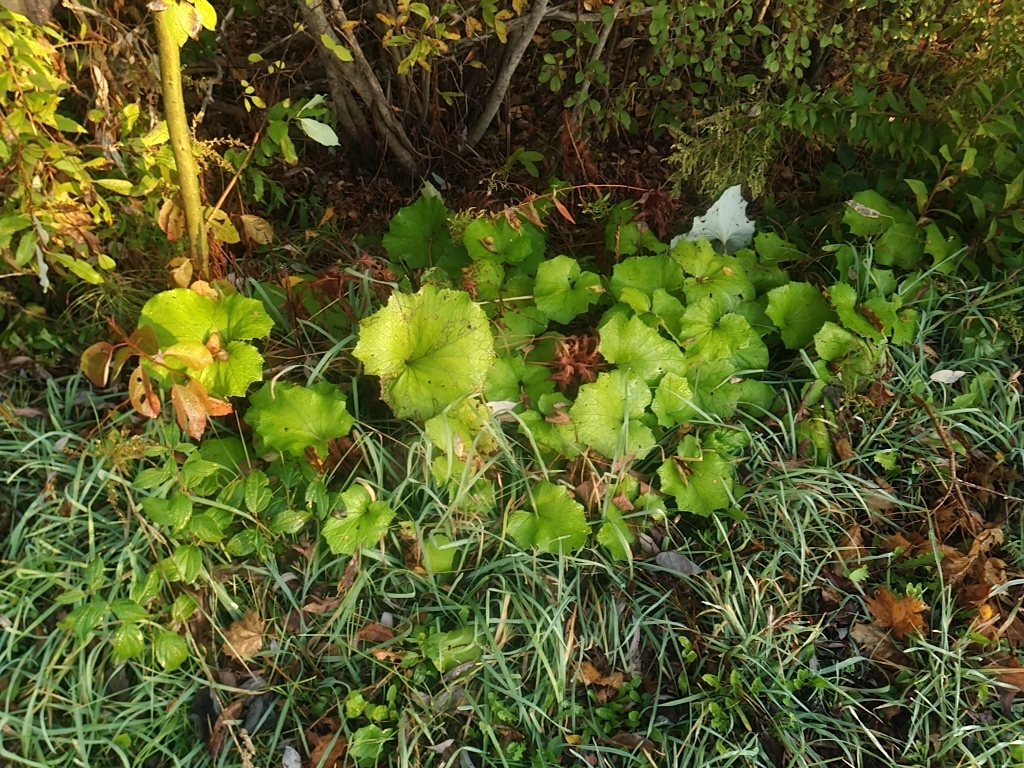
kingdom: Plantae
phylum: Tracheophyta
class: Magnoliopsida
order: Asterales
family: Asteraceae
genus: Tussilago
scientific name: Tussilago farfara
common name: Coltsfoot
